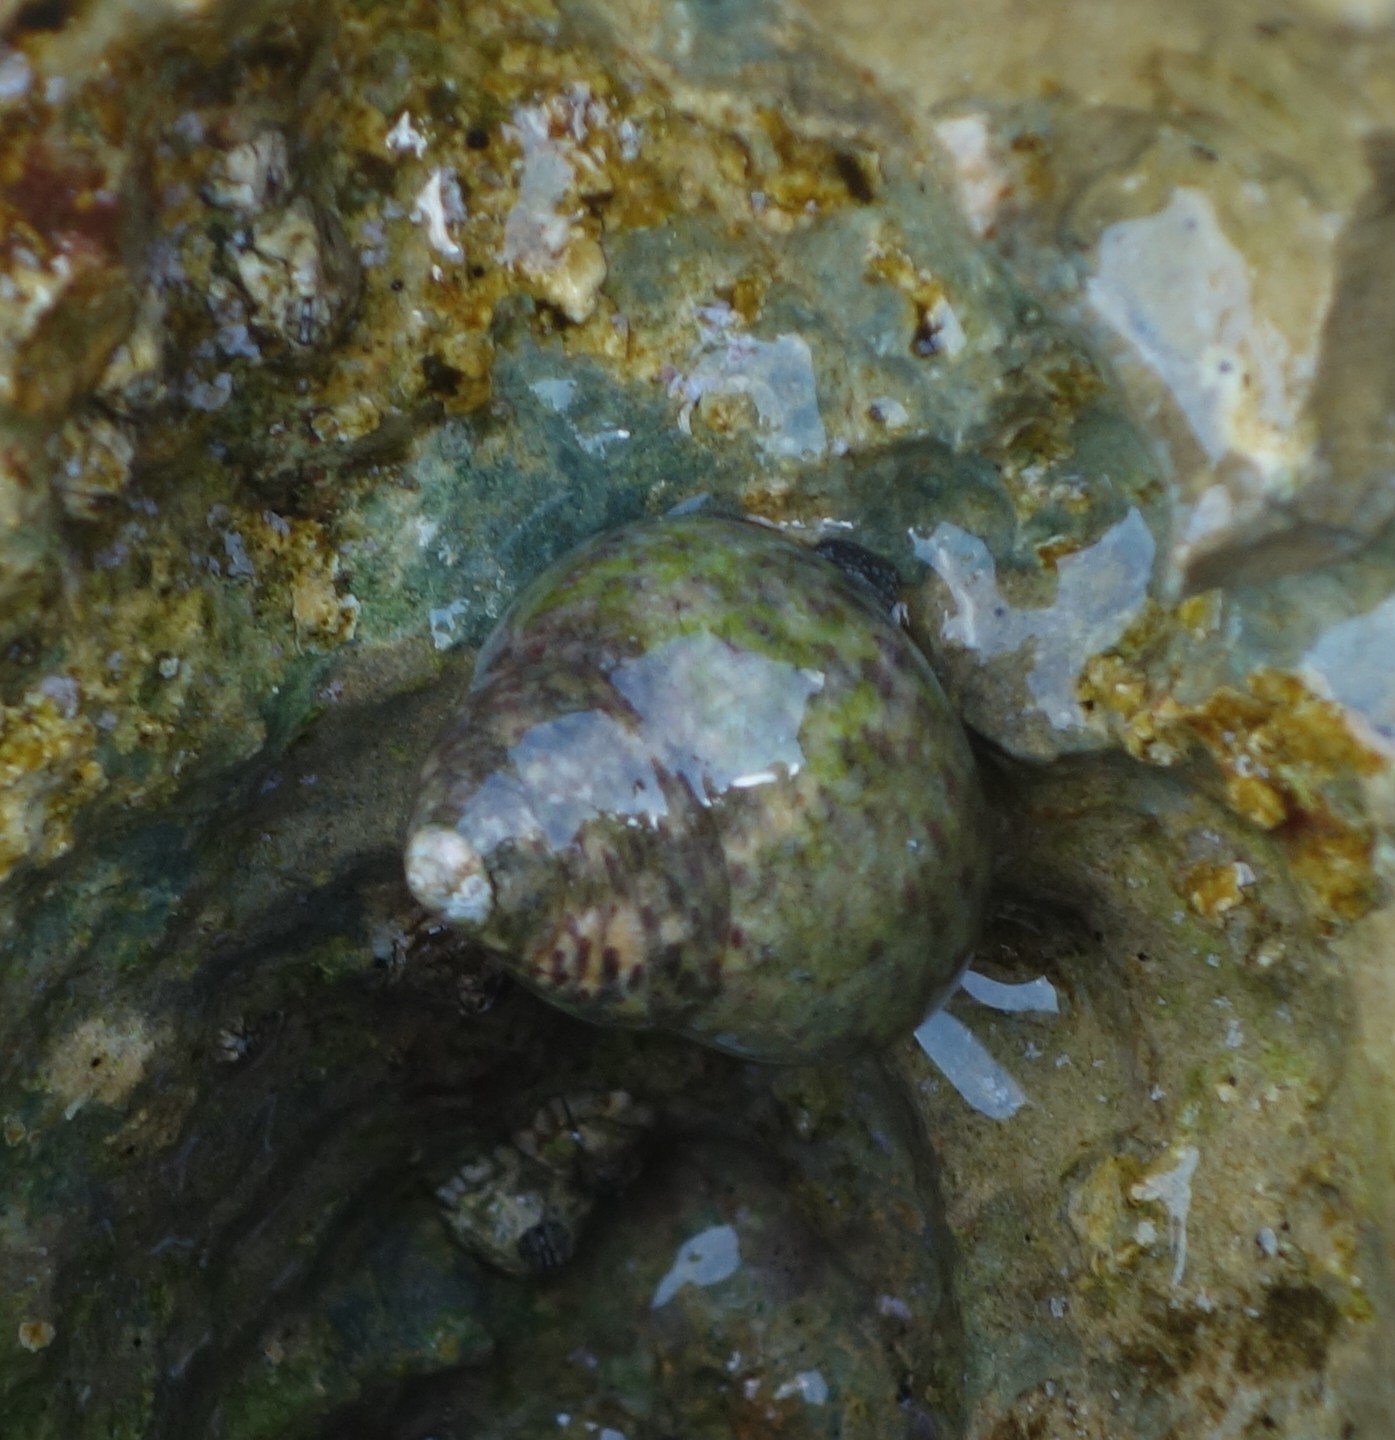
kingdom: Animalia
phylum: Mollusca
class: Gastropoda
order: Trochida
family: Trochidae
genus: Phorcus
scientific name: Phorcus turbinatus
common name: Turbinate monodont
